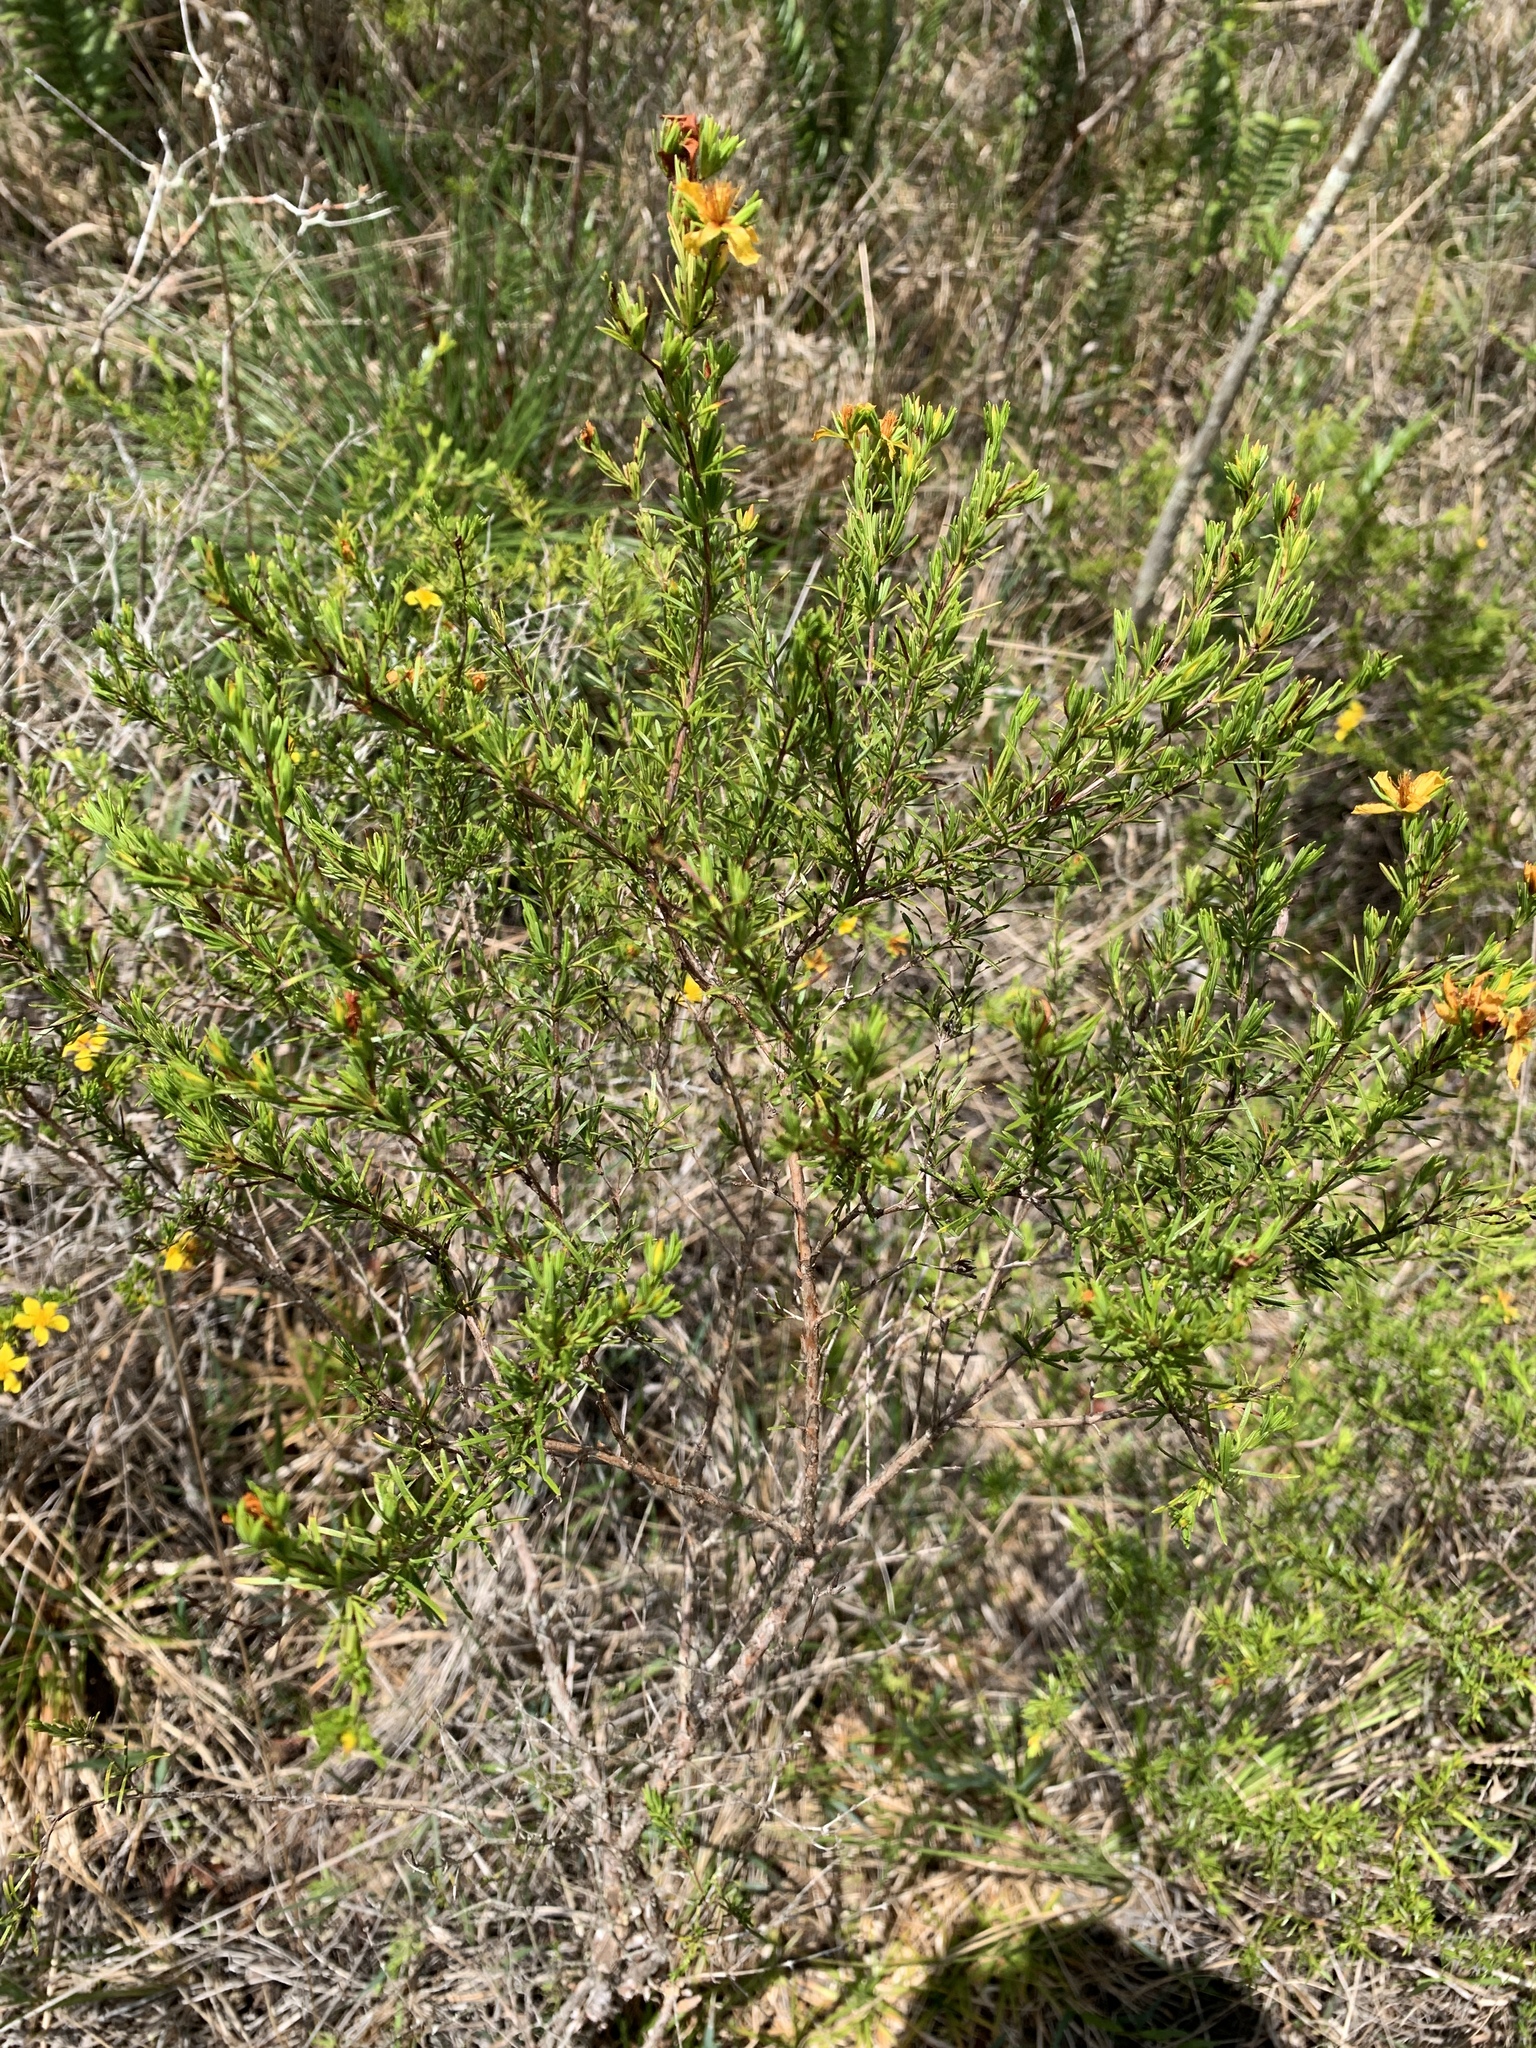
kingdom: Plantae
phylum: Tracheophyta
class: Magnoliopsida
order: Malpighiales
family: Hypericaceae
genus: Hypericum
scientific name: Hypericum fasciculatum
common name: Peelbark st. john's wort
